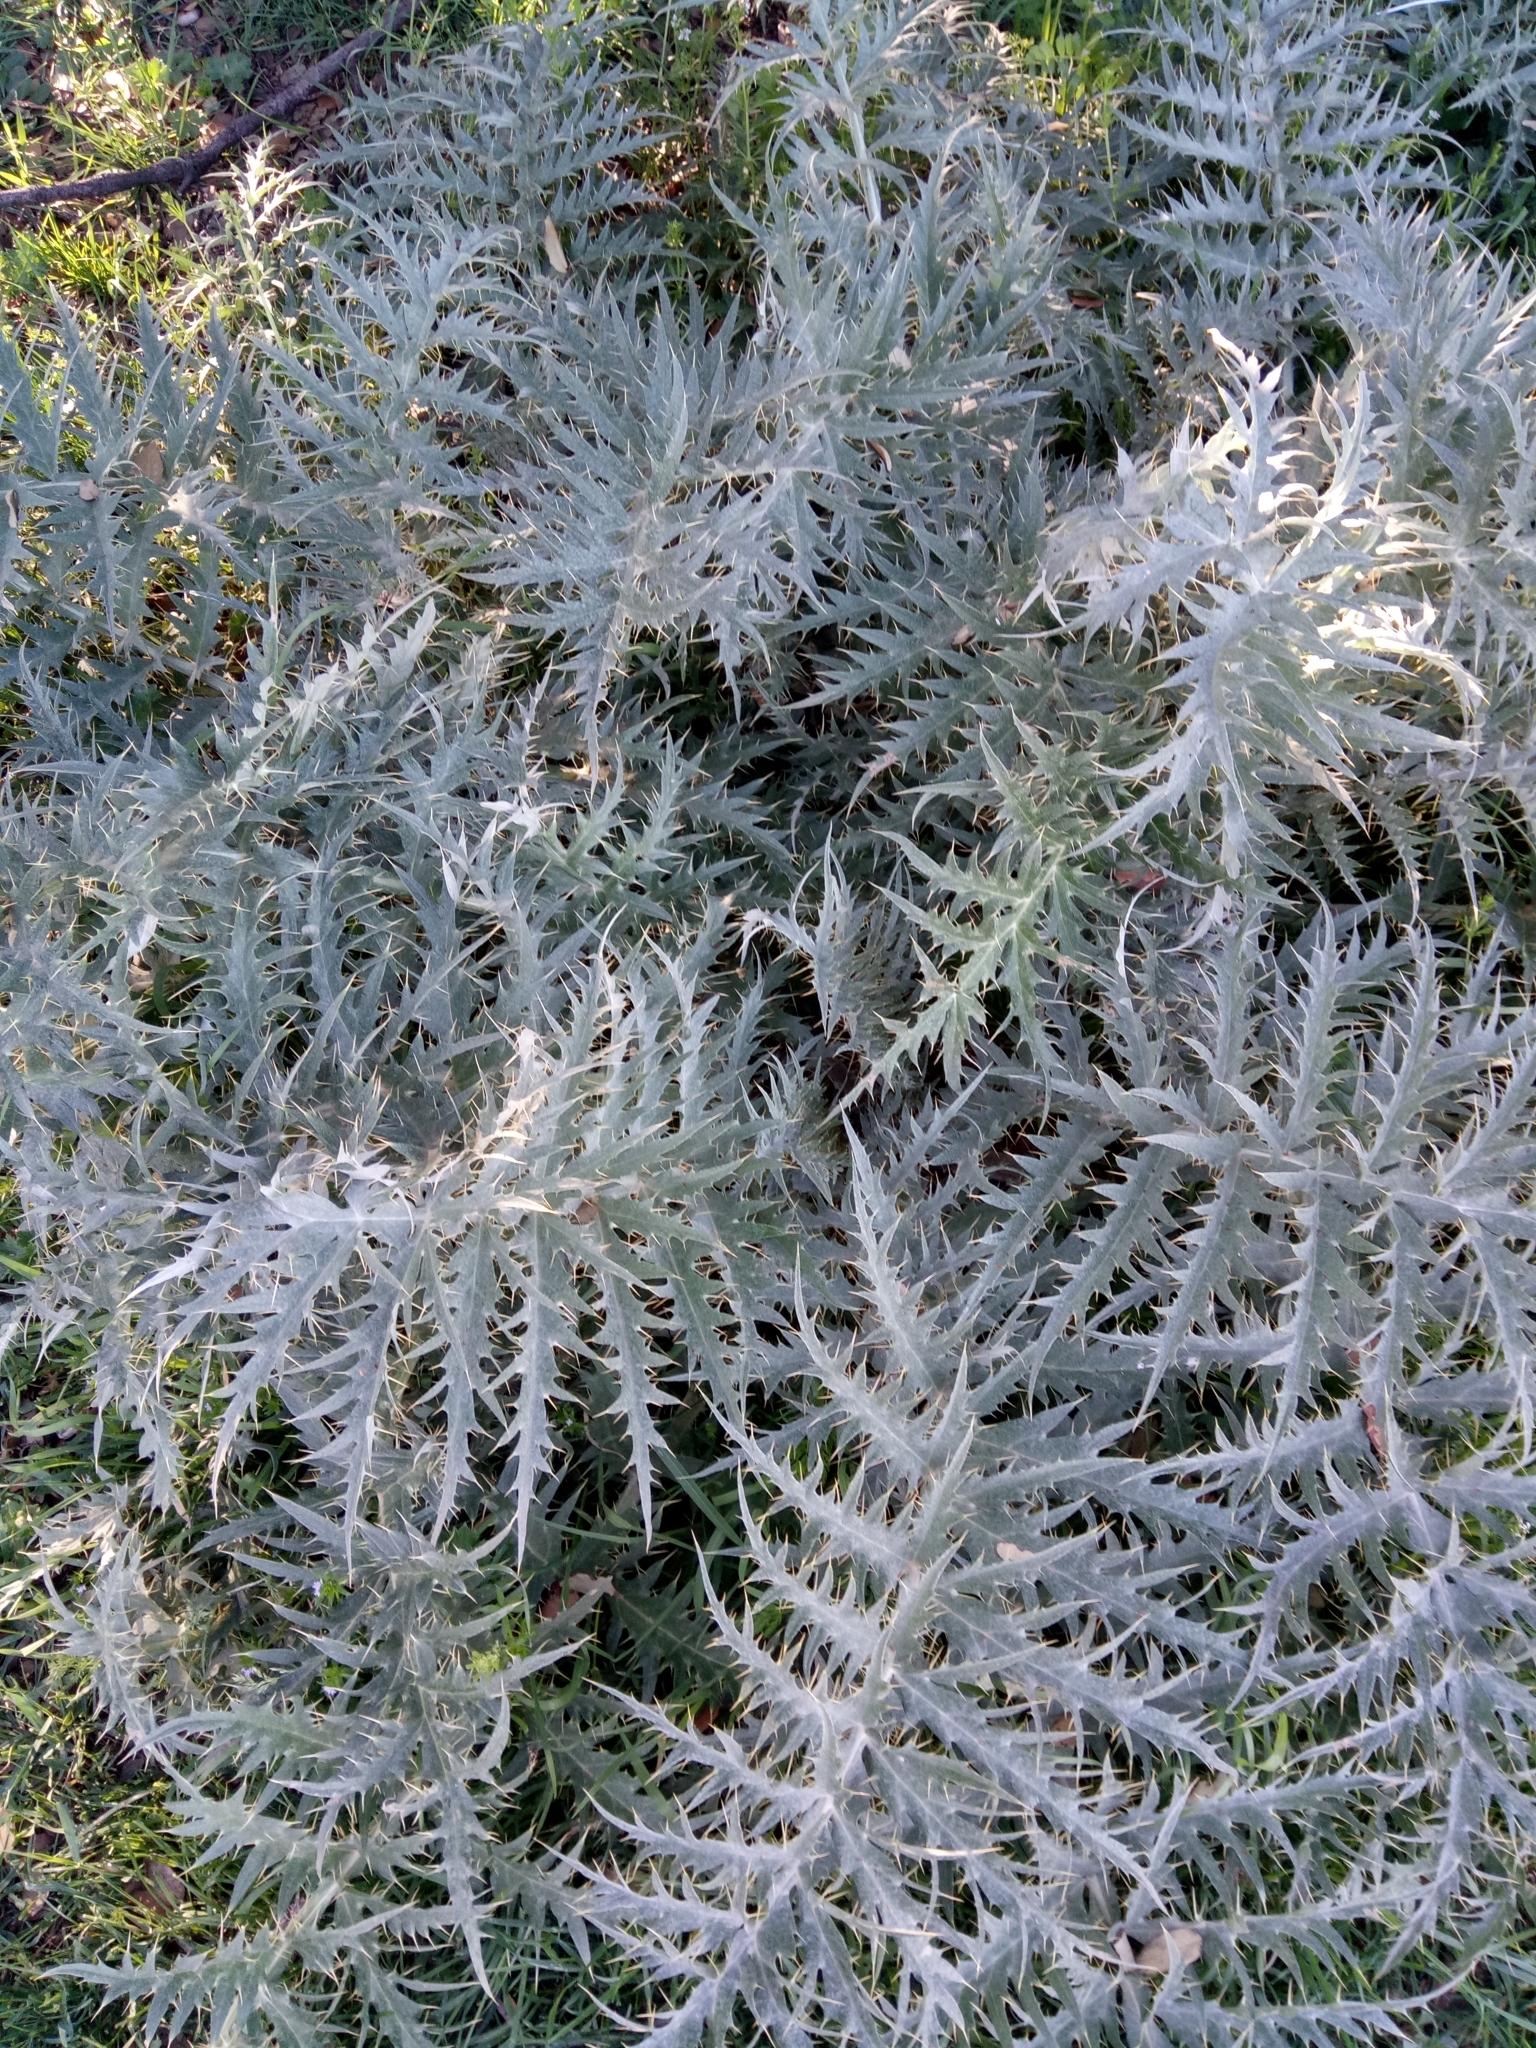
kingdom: Plantae
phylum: Tracheophyta
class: Magnoliopsida
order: Asterales
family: Asteraceae
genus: Cynara
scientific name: Cynara cardunculus
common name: Globe artichoke
